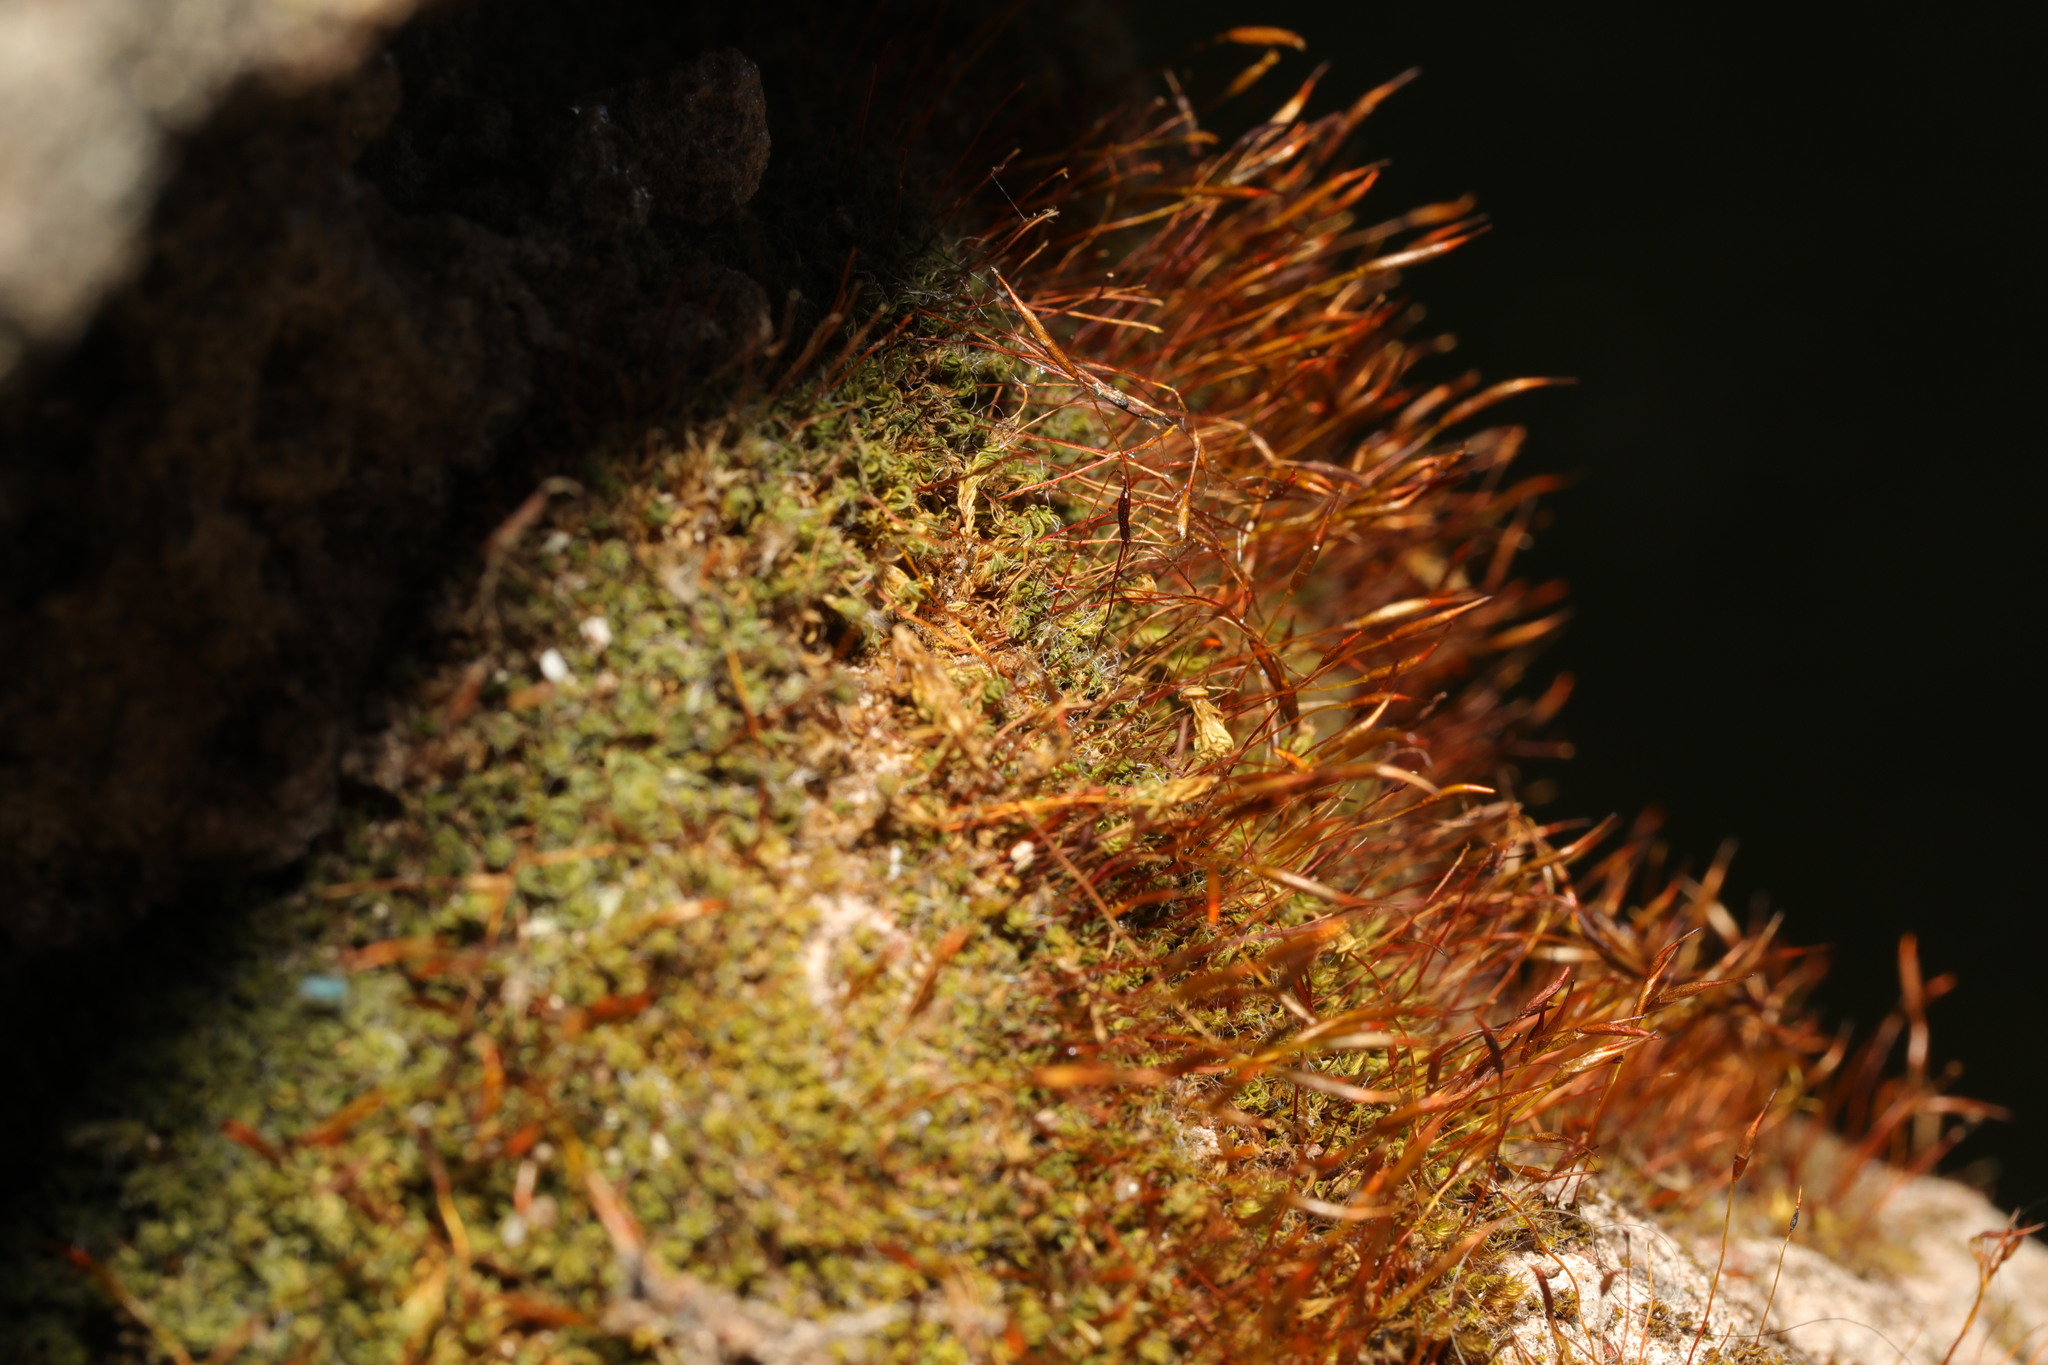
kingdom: Plantae
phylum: Bryophyta
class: Bryopsida
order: Pottiales
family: Pottiaceae
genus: Tortula
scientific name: Tortula muralis
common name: Wall screw-moss
